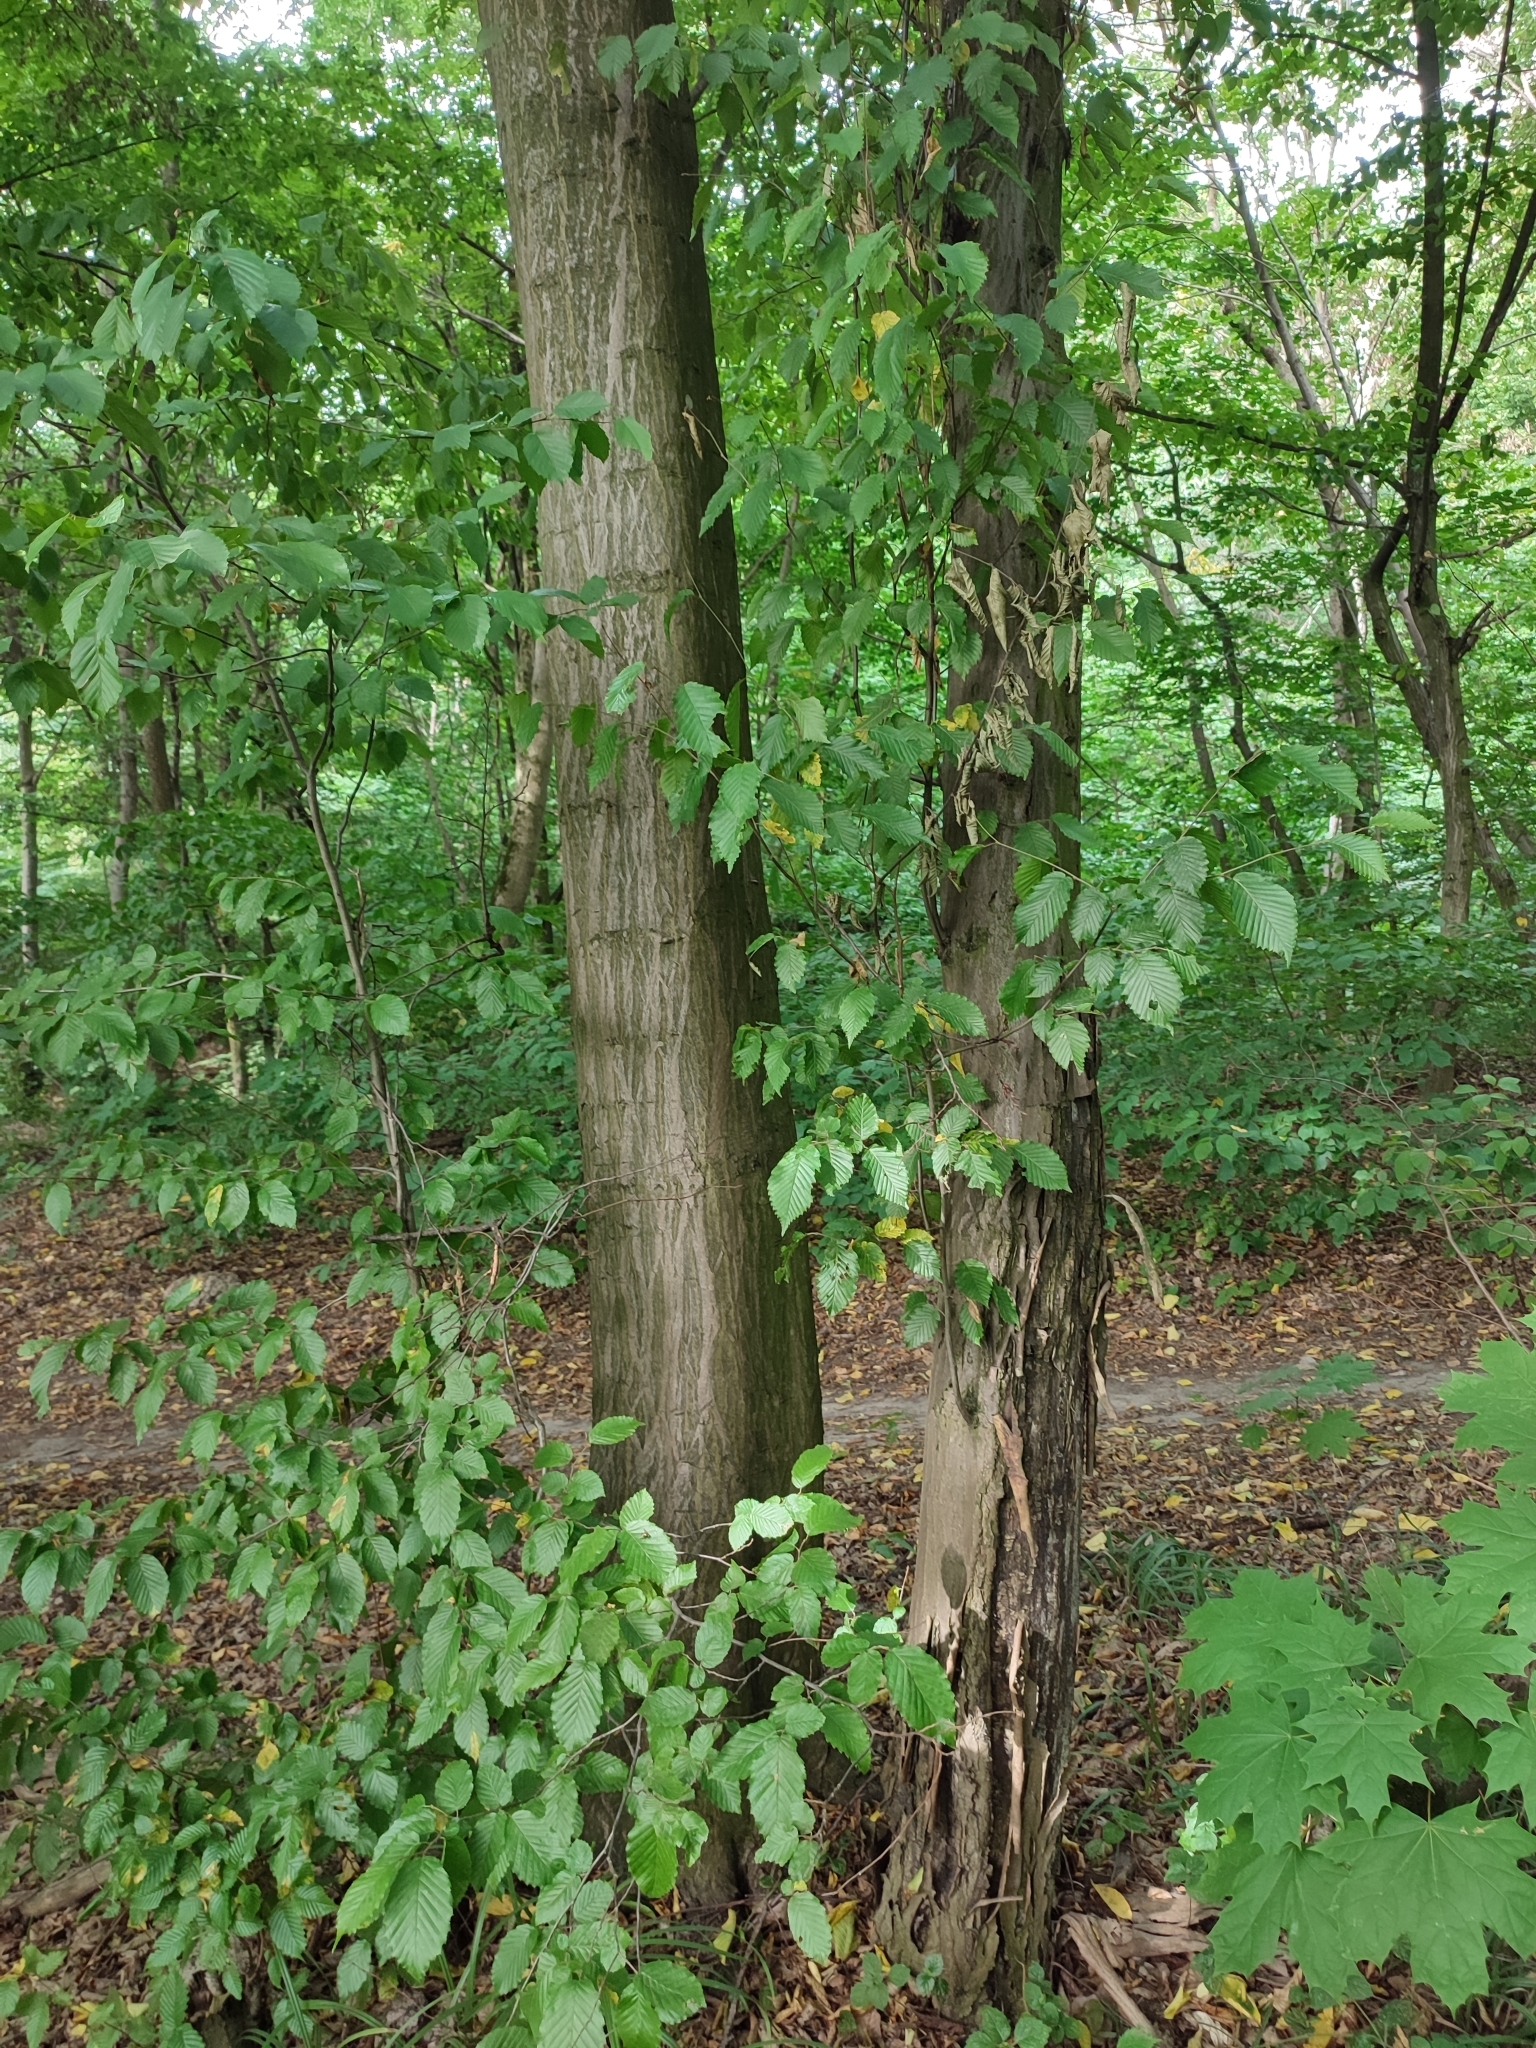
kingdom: Plantae
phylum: Tracheophyta
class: Magnoliopsida
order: Fagales
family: Betulaceae
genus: Carpinus
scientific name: Carpinus betulus
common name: Hornbeam
